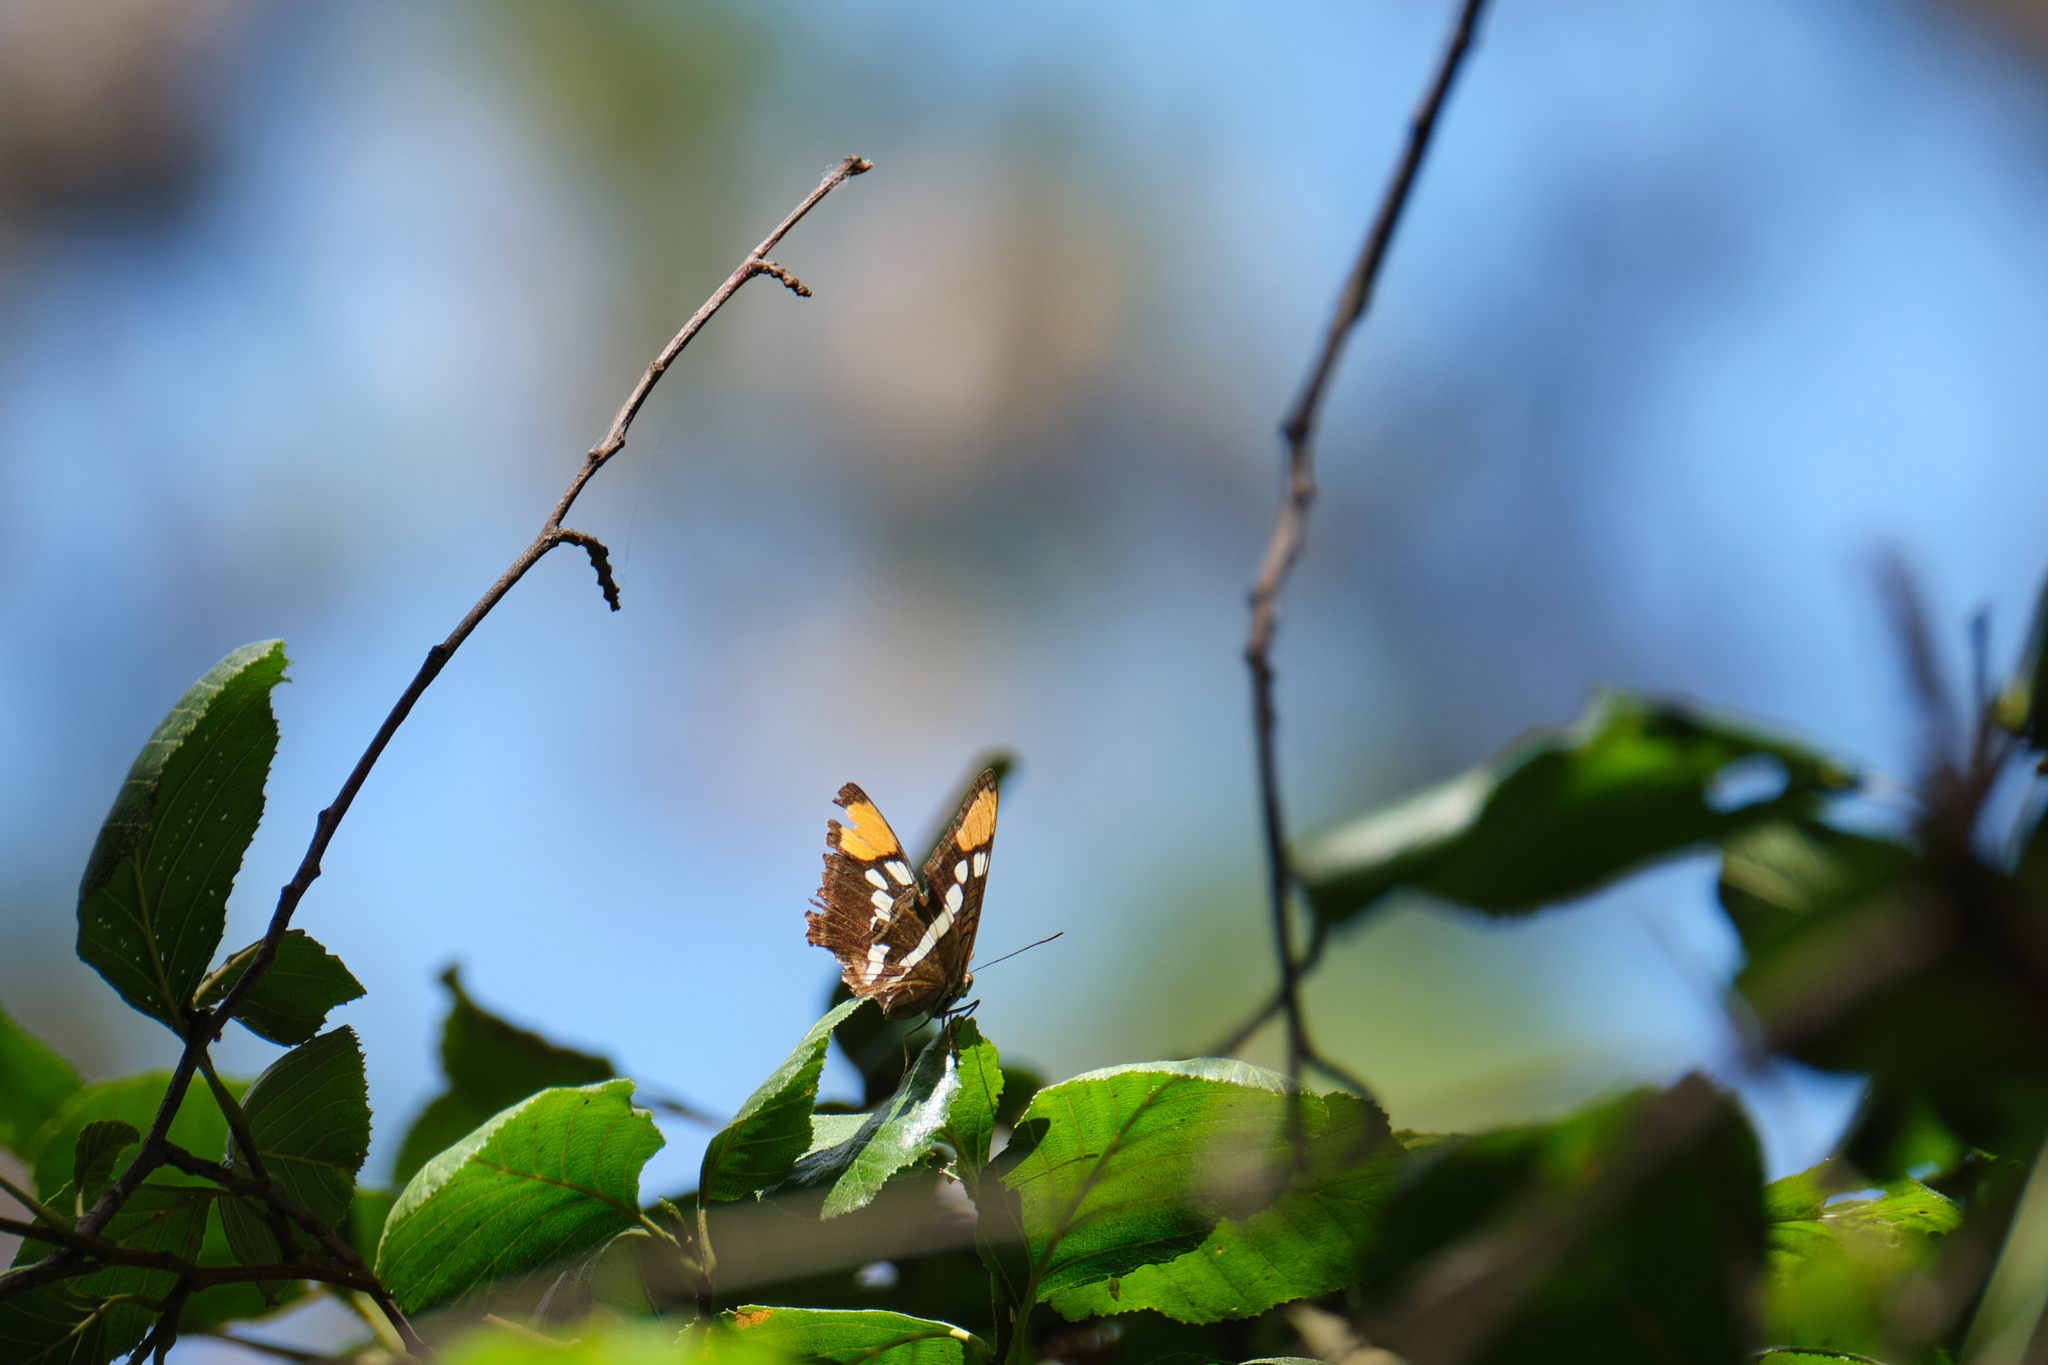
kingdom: Animalia
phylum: Arthropoda
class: Insecta
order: Lepidoptera
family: Nymphalidae
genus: Limenitis
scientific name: Limenitis bredowii
